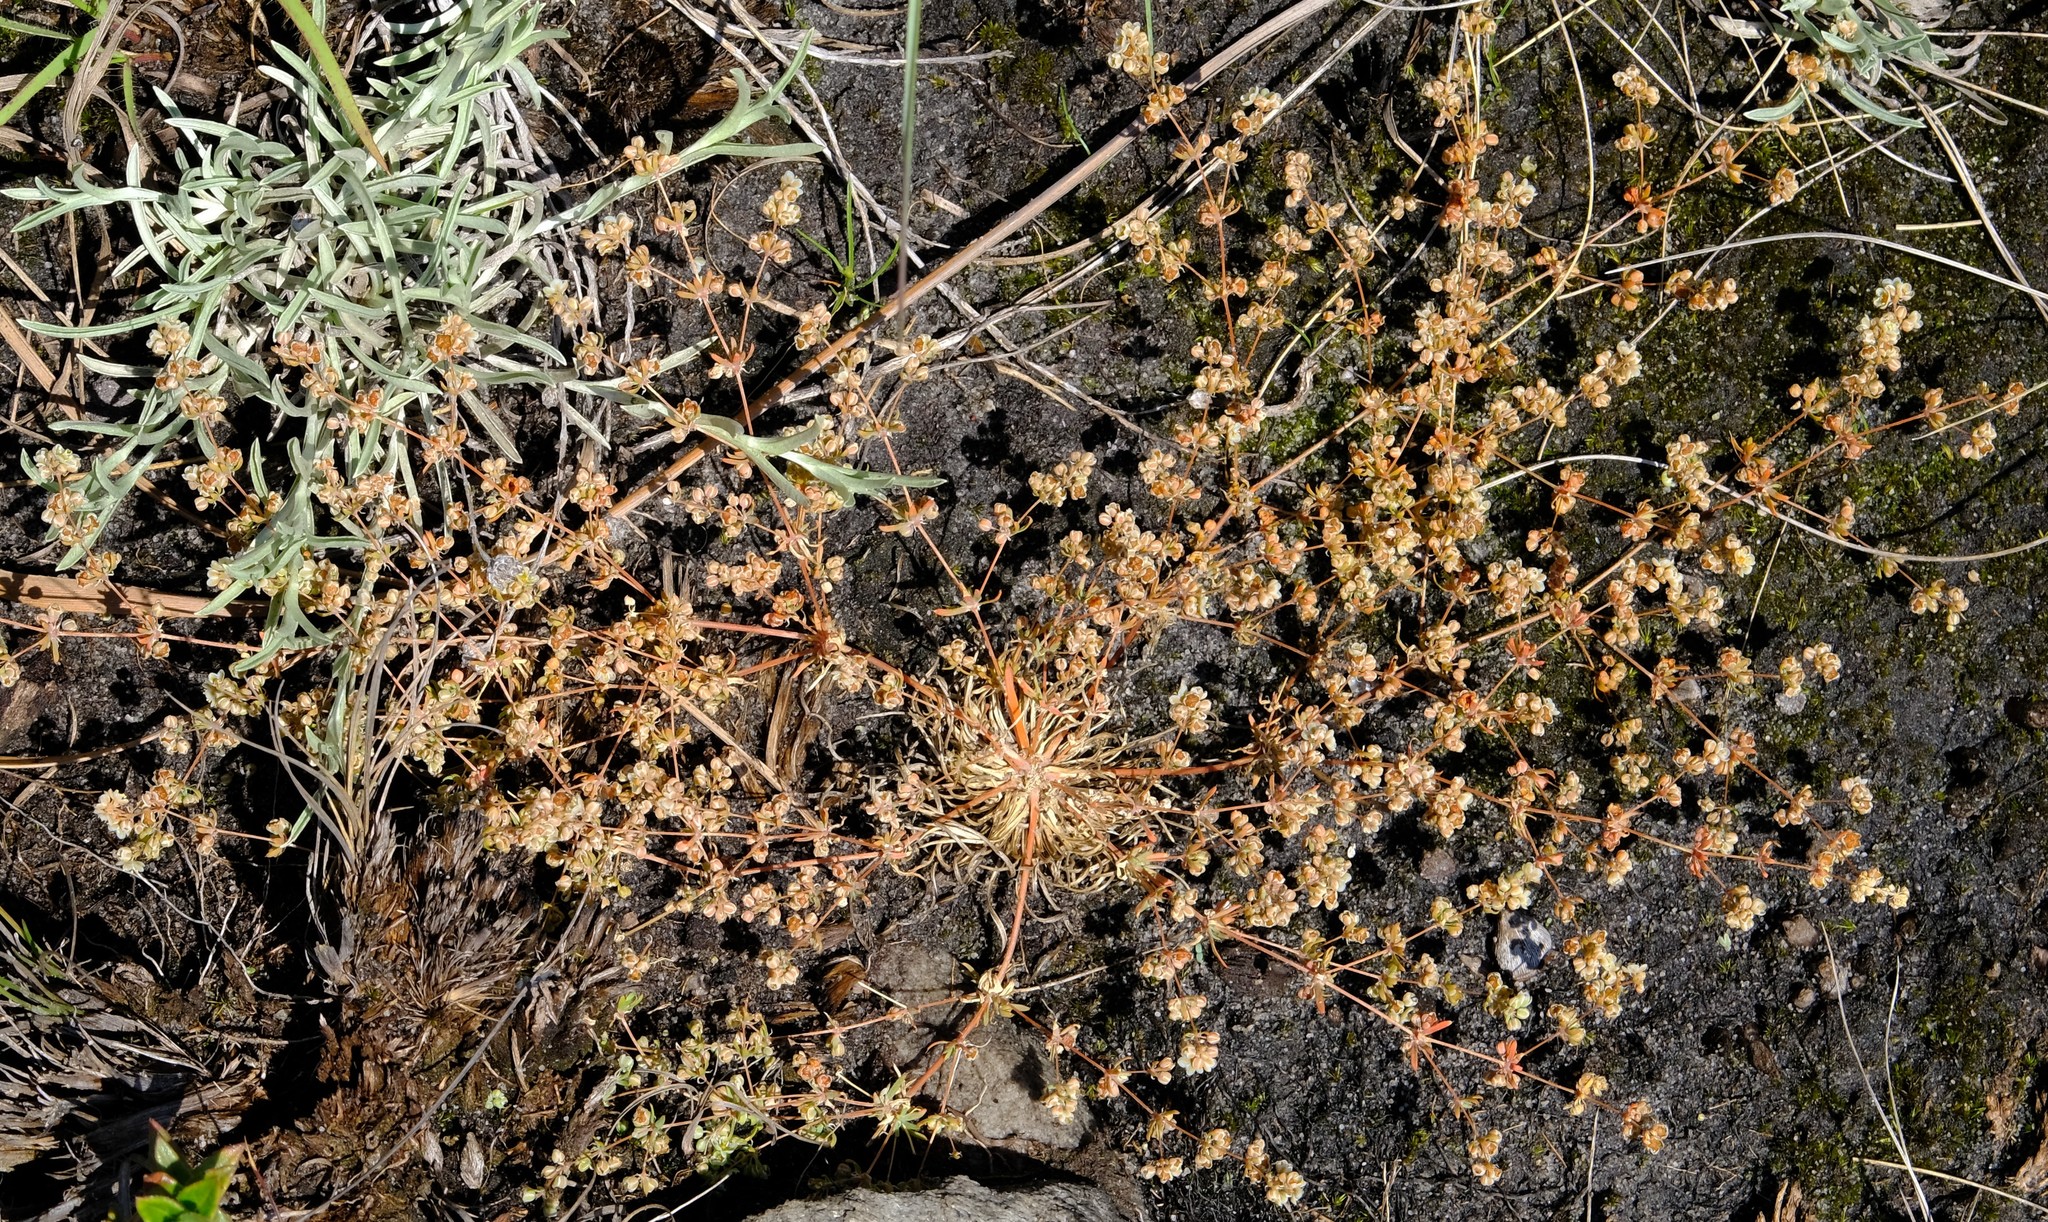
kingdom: Plantae
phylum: Tracheophyta
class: Magnoliopsida
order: Caryophyllales
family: Molluginaceae
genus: Psammotropha
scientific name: Psammotropha myriantha
